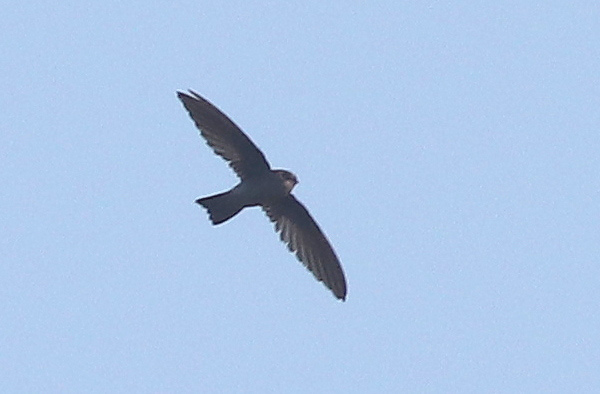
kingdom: Animalia
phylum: Chordata
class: Aves
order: Apodiformes
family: Apodidae
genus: Apus
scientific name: Apus nipalensis
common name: House swift
